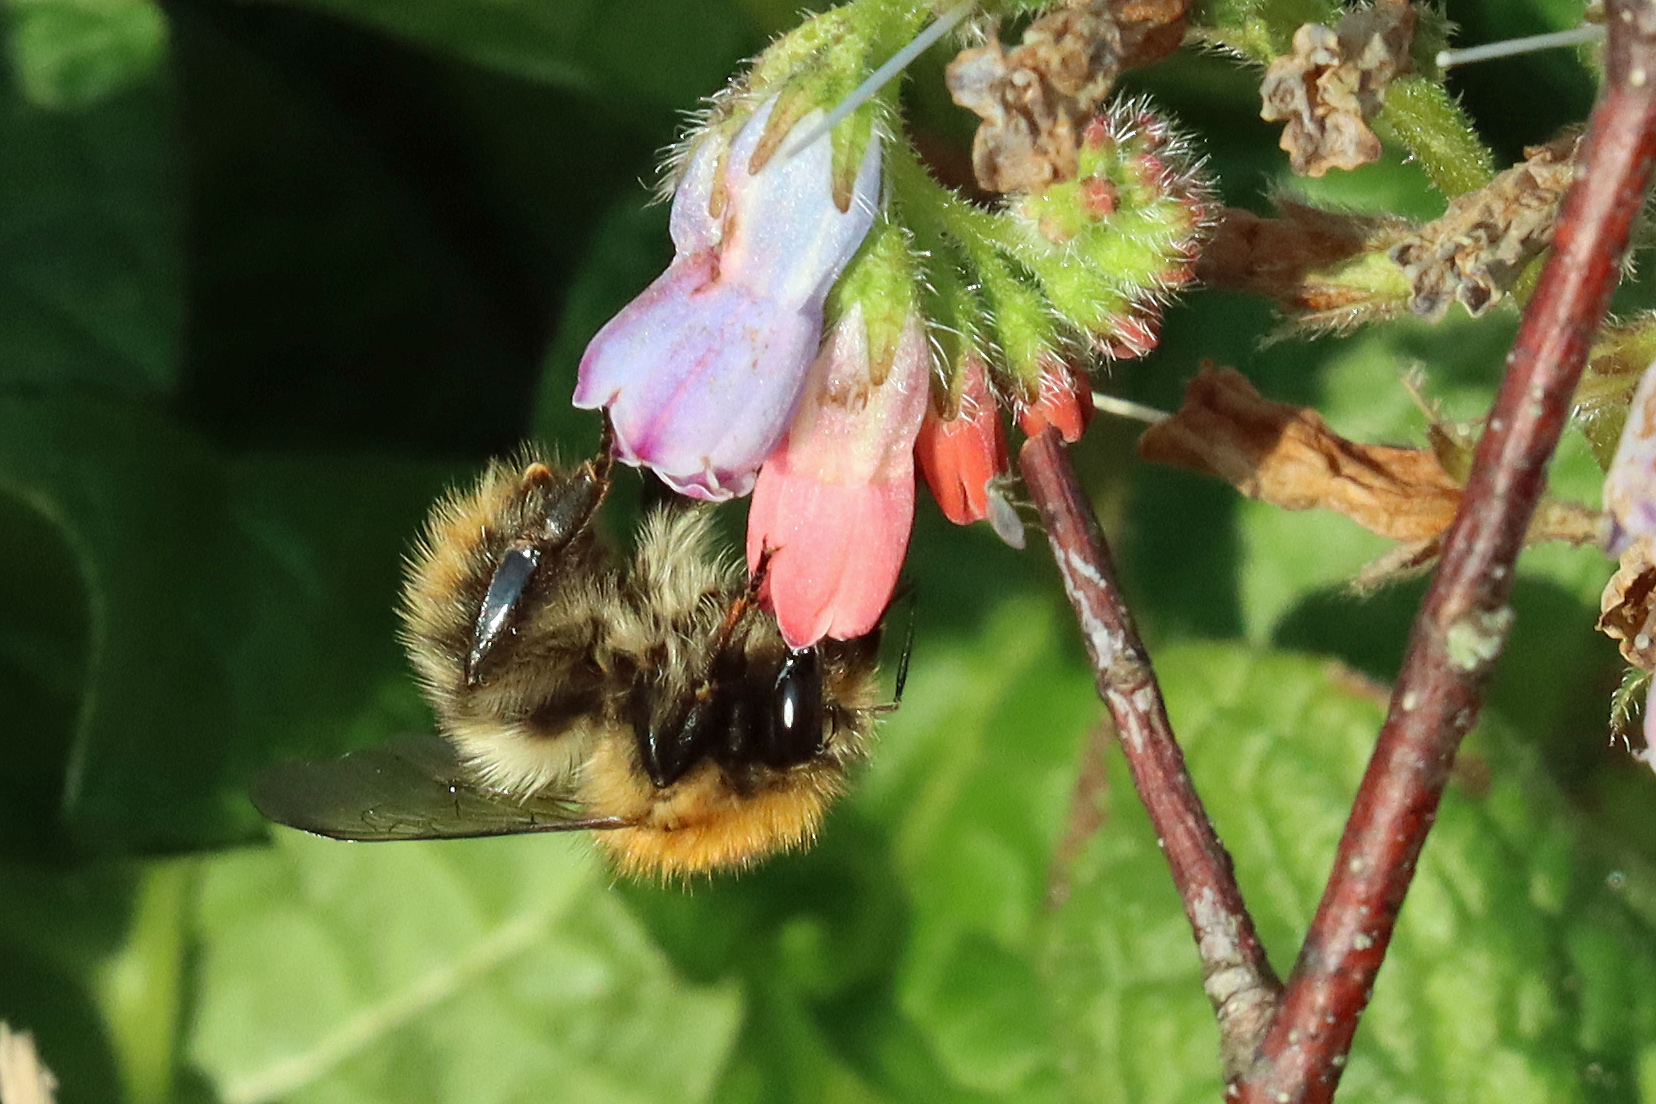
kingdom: Animalia
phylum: Arthropoda
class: Insecta
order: Hymenoptera
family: Apidae
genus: Bombus
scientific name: Bombus pascuorum
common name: Common carder bee
